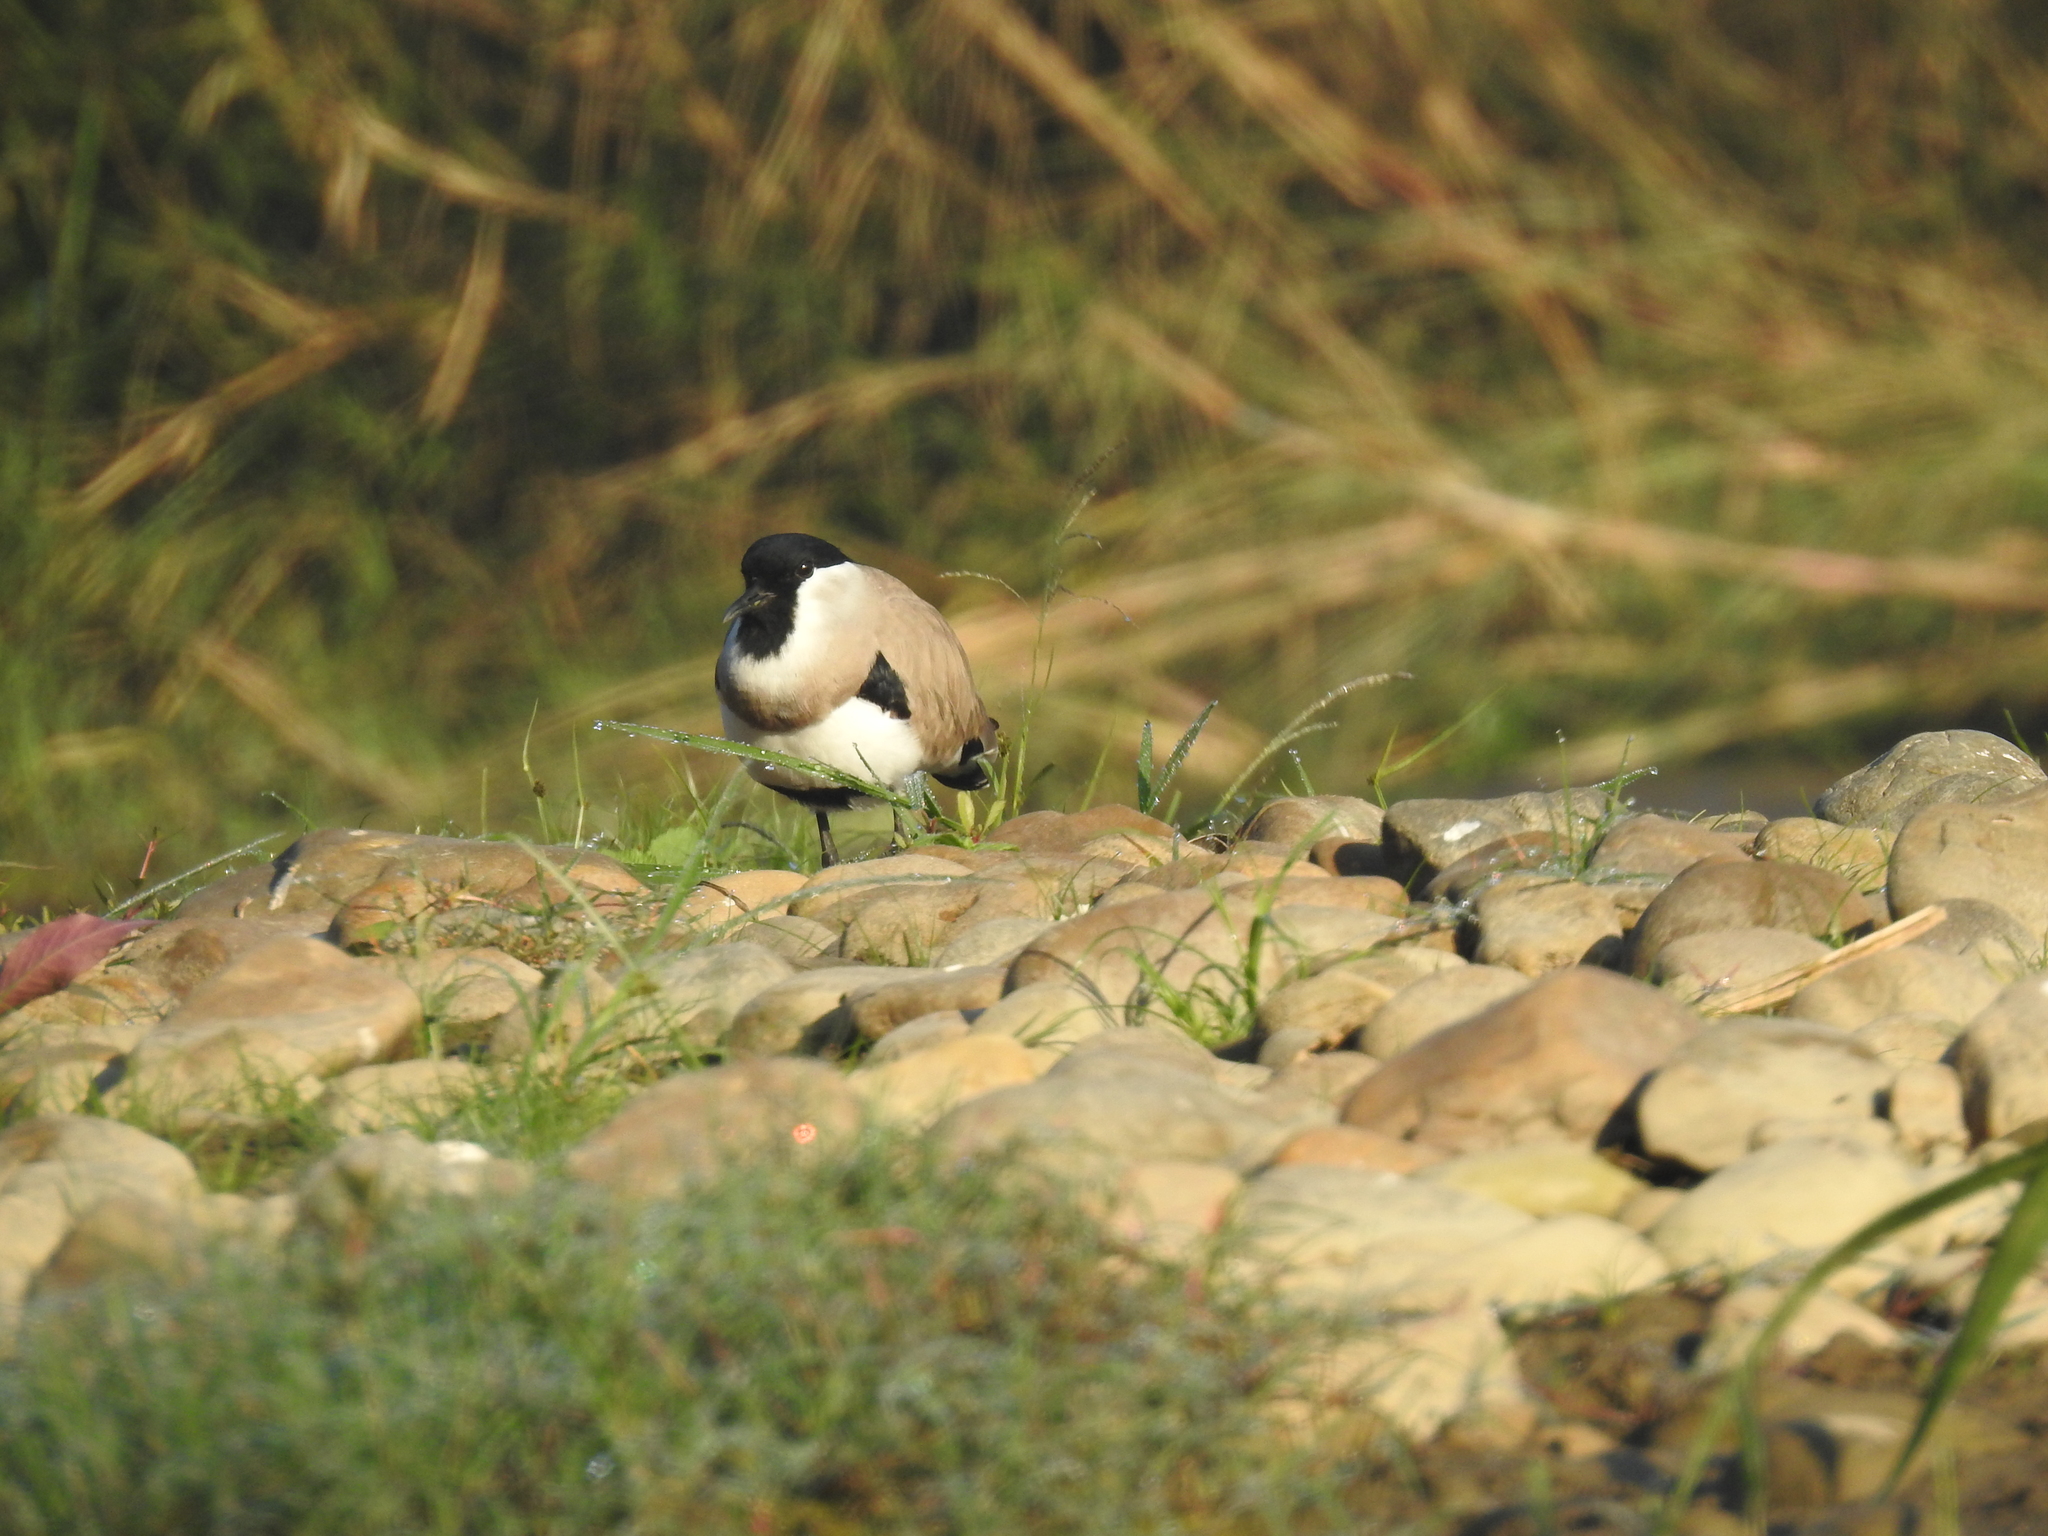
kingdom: Animalia
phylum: Chordata
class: Aves
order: Charadriiformes
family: Charadriidae
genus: Vanellus
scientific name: Vanellus duvaucelii
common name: River lapwing
